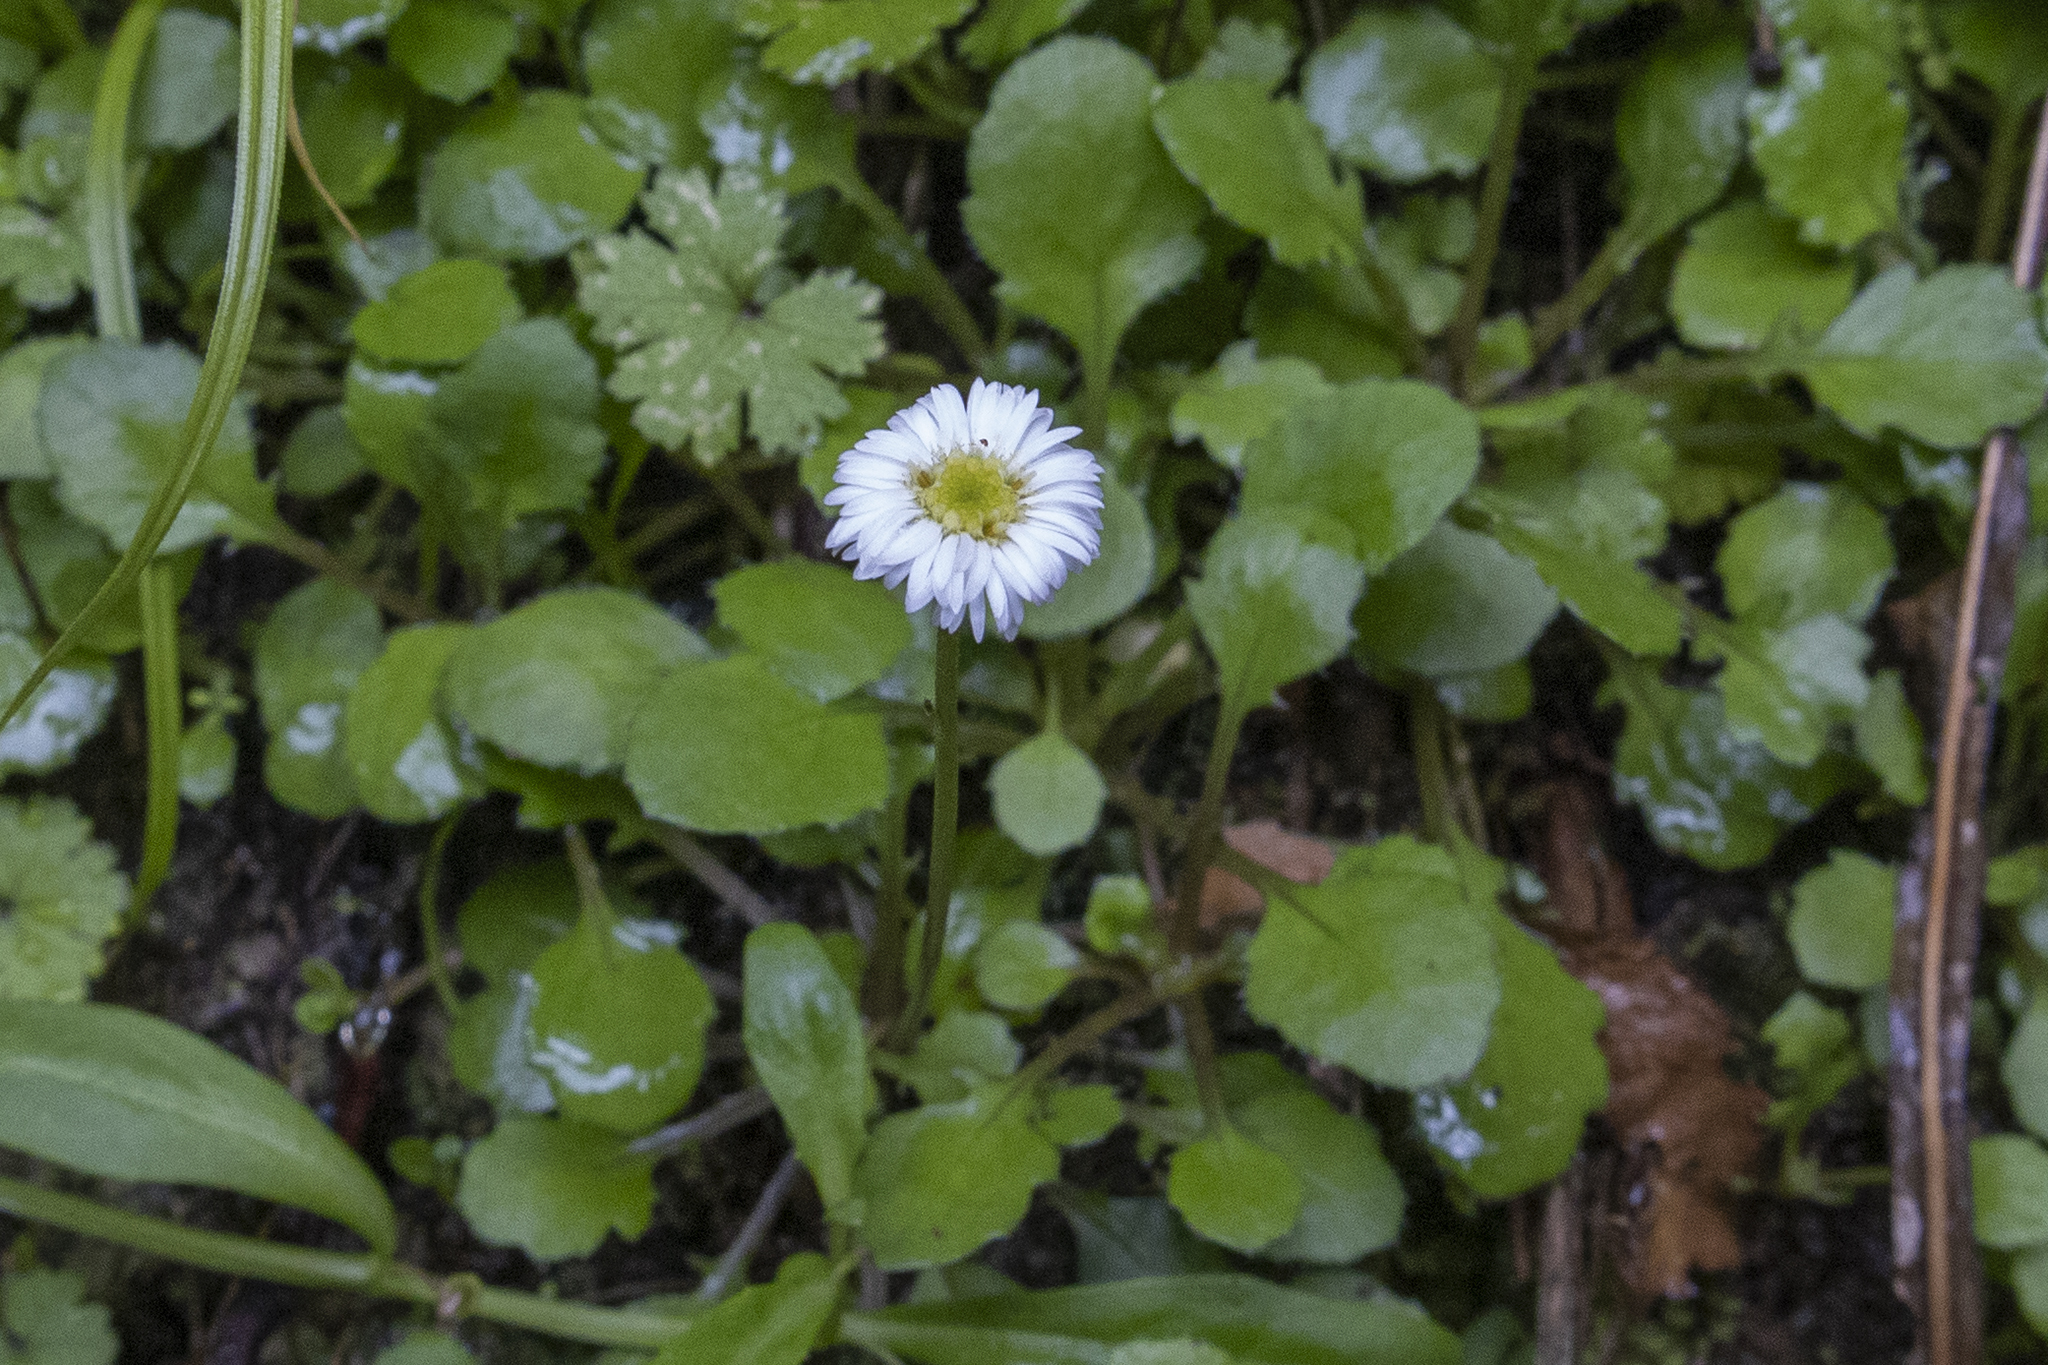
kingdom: Plantae
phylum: Tracheophyta
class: Magnoliopsida
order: Asterales
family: Asteraceae
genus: Lagenophora
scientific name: Lagenophora pumila
